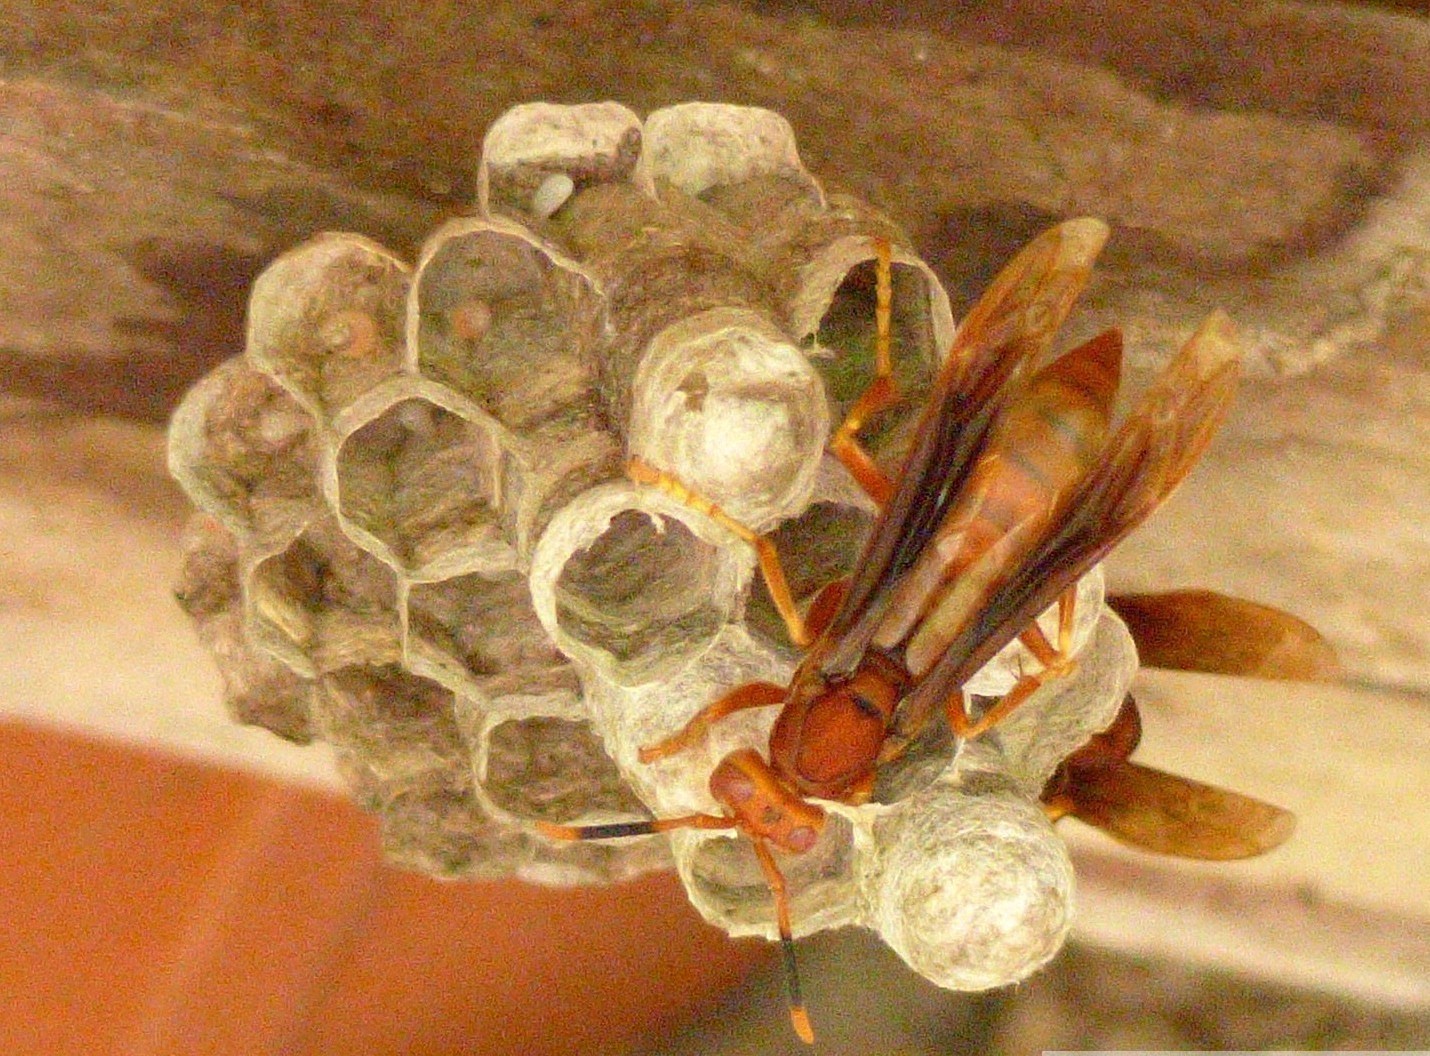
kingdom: Animalia
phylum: Arthropoda
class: Insecta
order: Hymenoptera
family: Eumenidae
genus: Polistes
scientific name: Polistes canadensis
